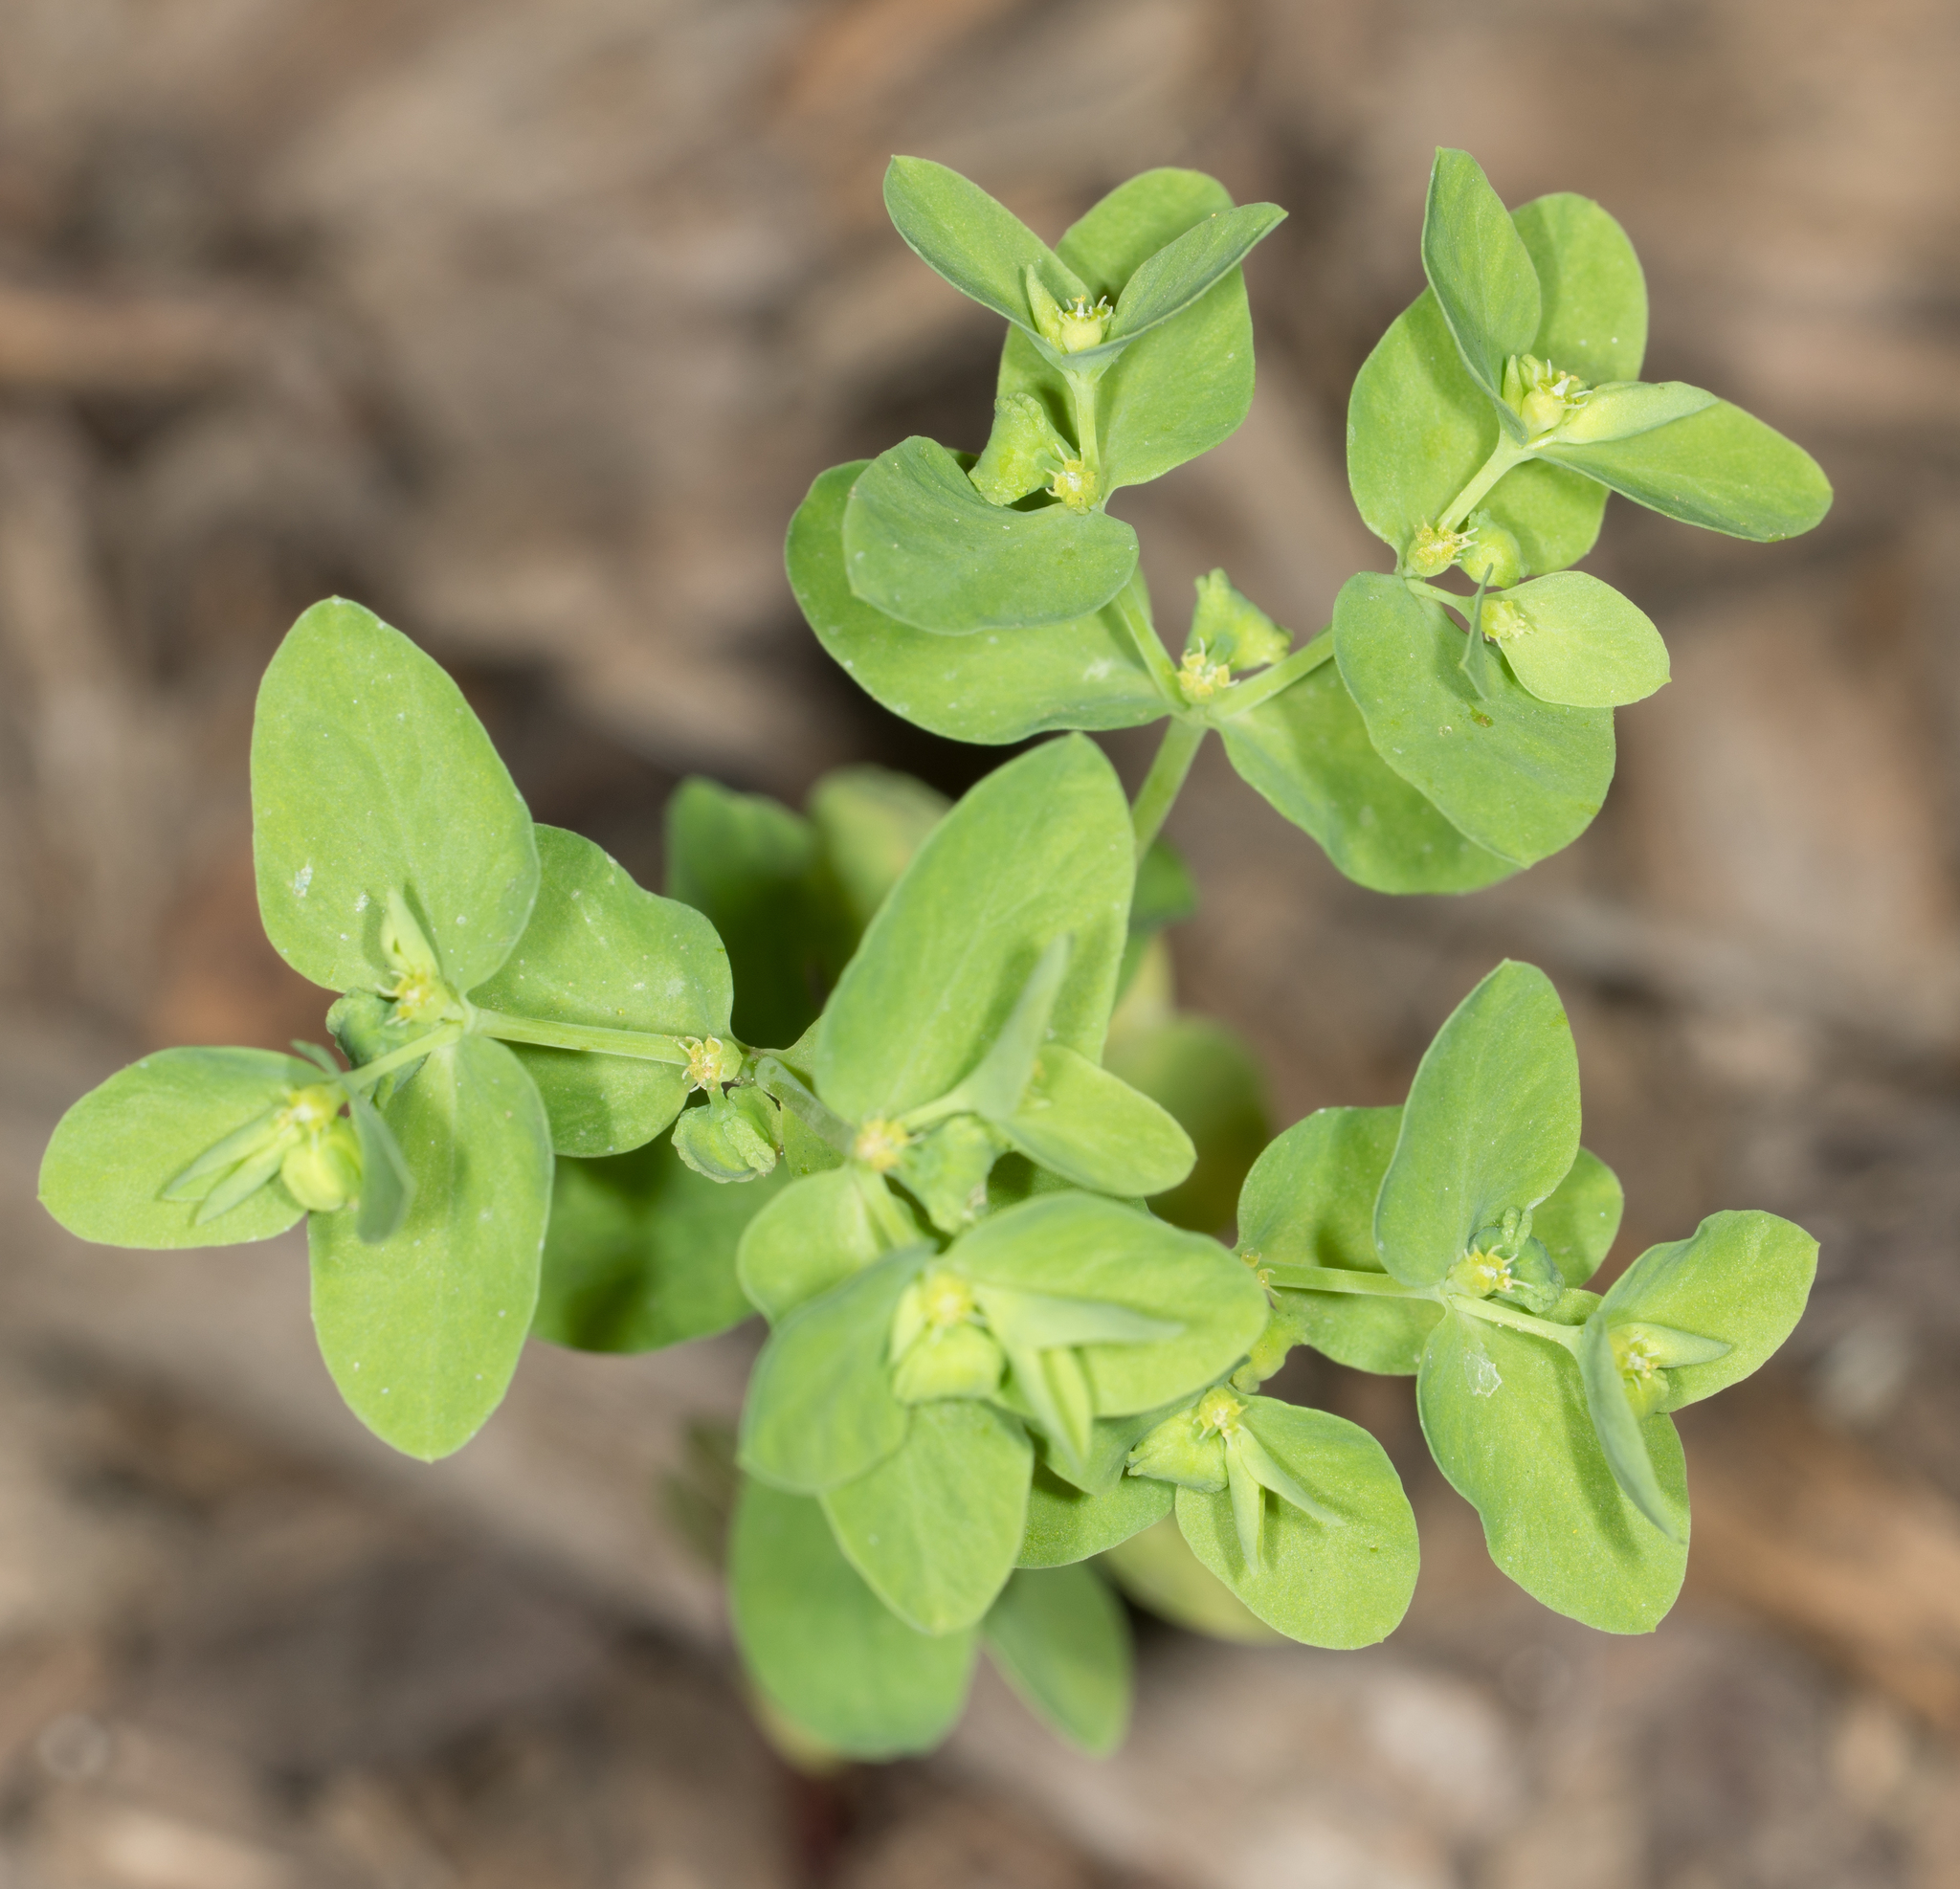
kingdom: Plantae
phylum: Tracheophyta
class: Magnoliopsida
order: Malpighiales
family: Euphorbiaceae
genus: Euphorbia
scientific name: Euphorbia peplus
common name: Petty spurge
